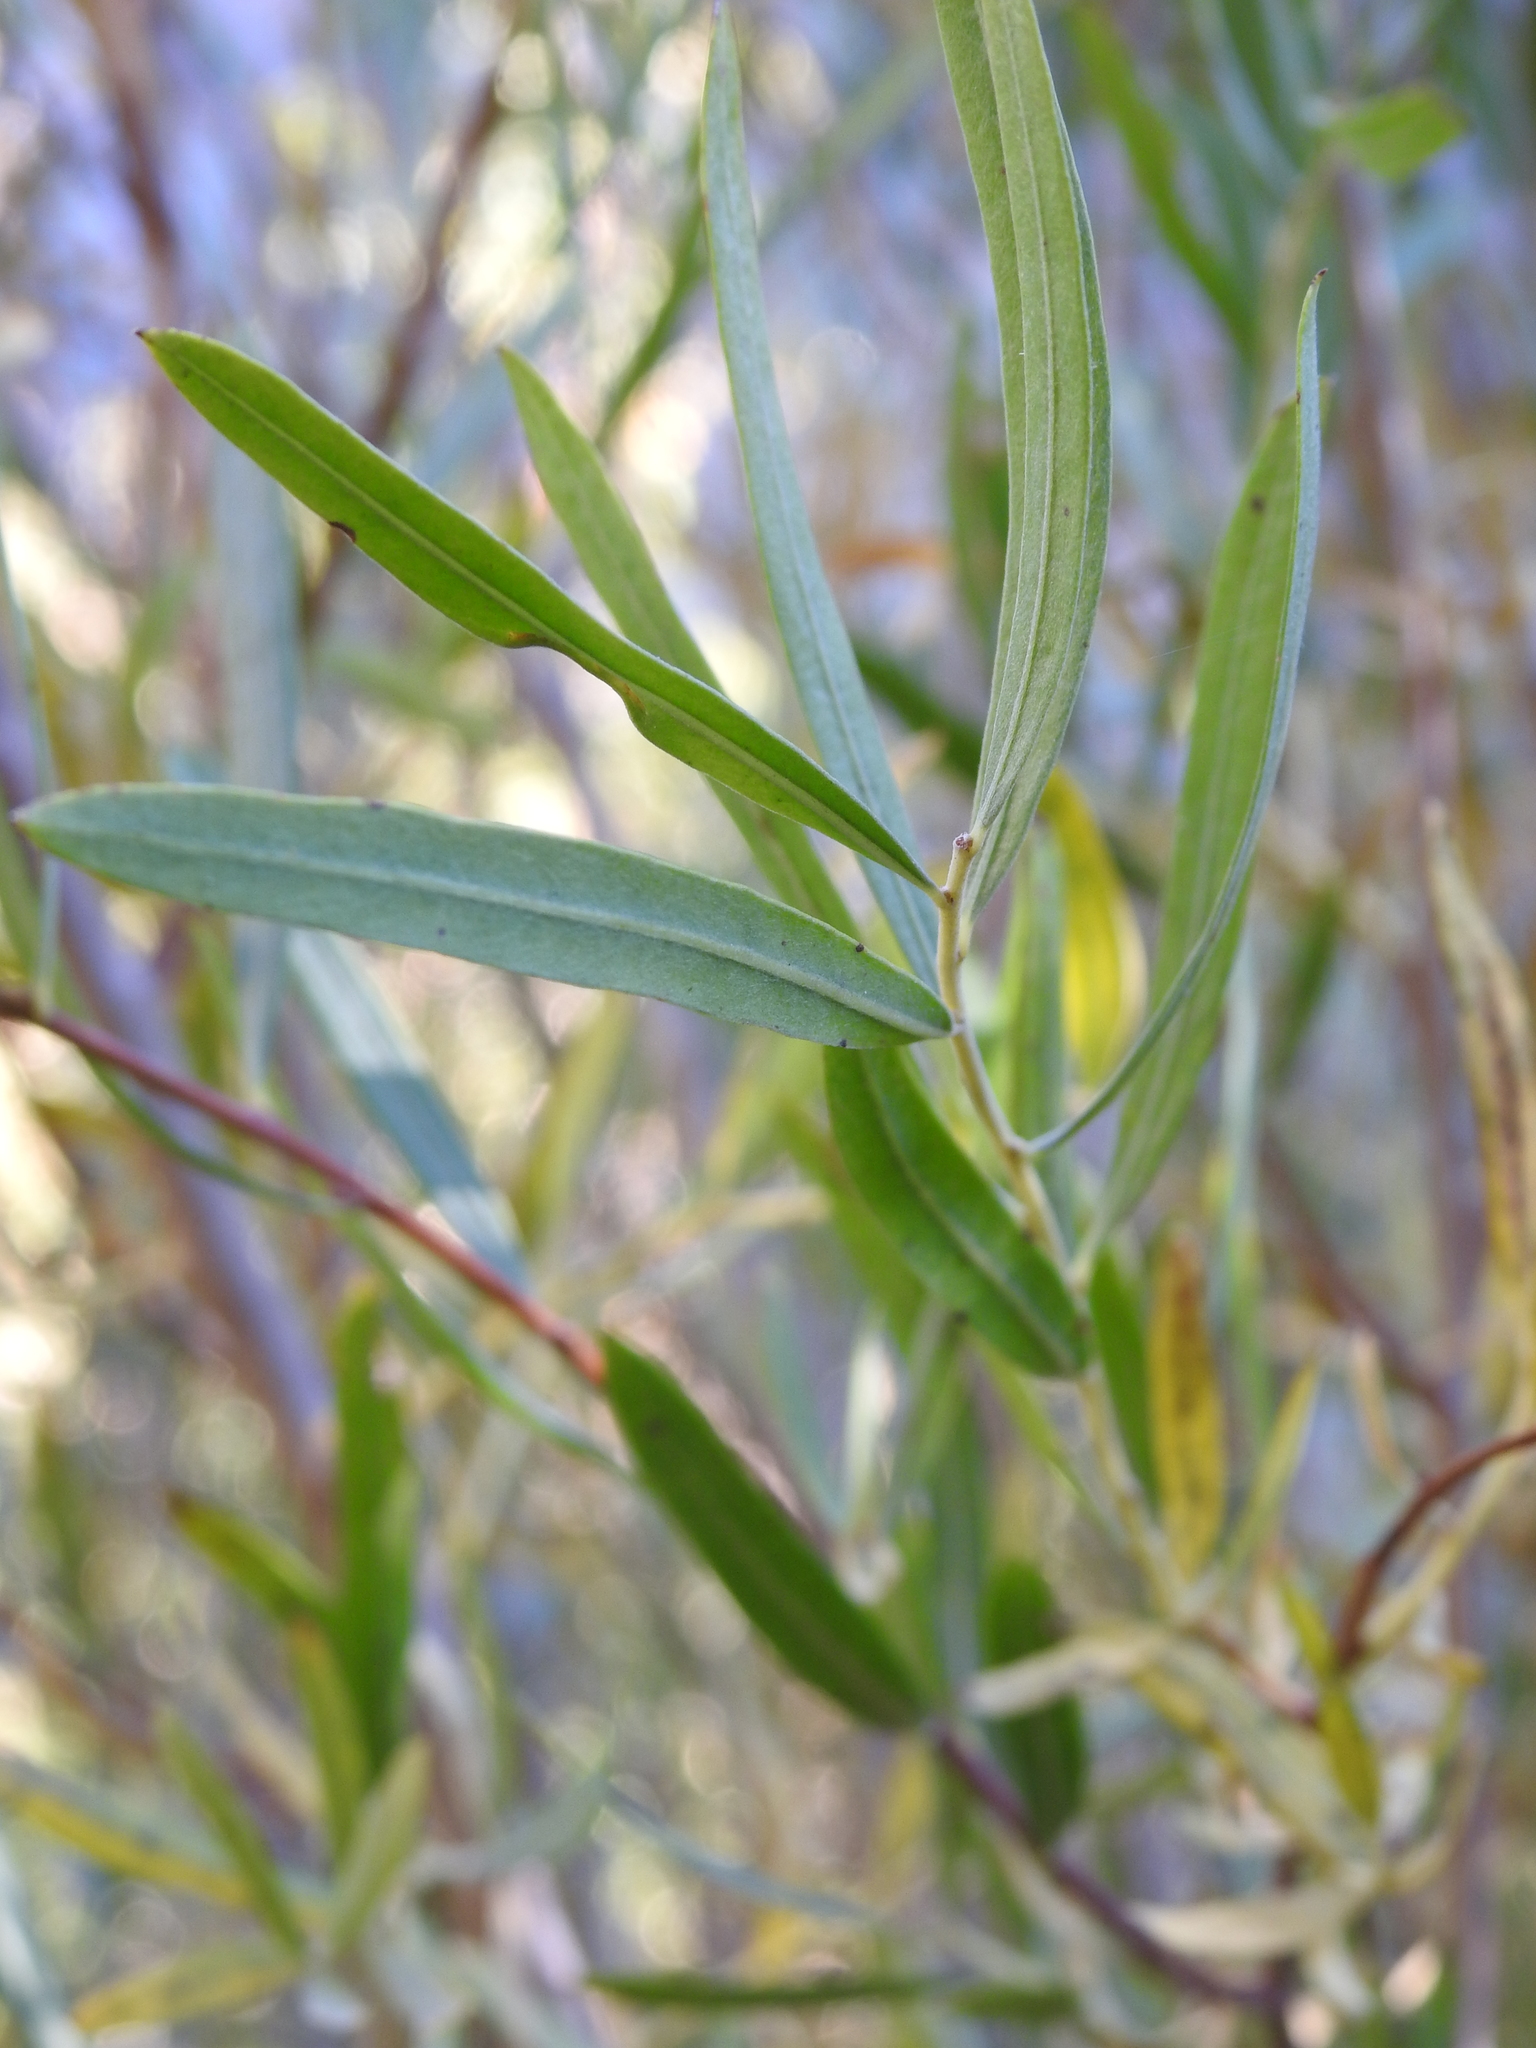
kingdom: Plantae
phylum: Tracheophyta
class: Magnoliopsida
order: Malpighiales
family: Salicaceae
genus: Salix
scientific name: Salix exigua
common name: Coyote willow
